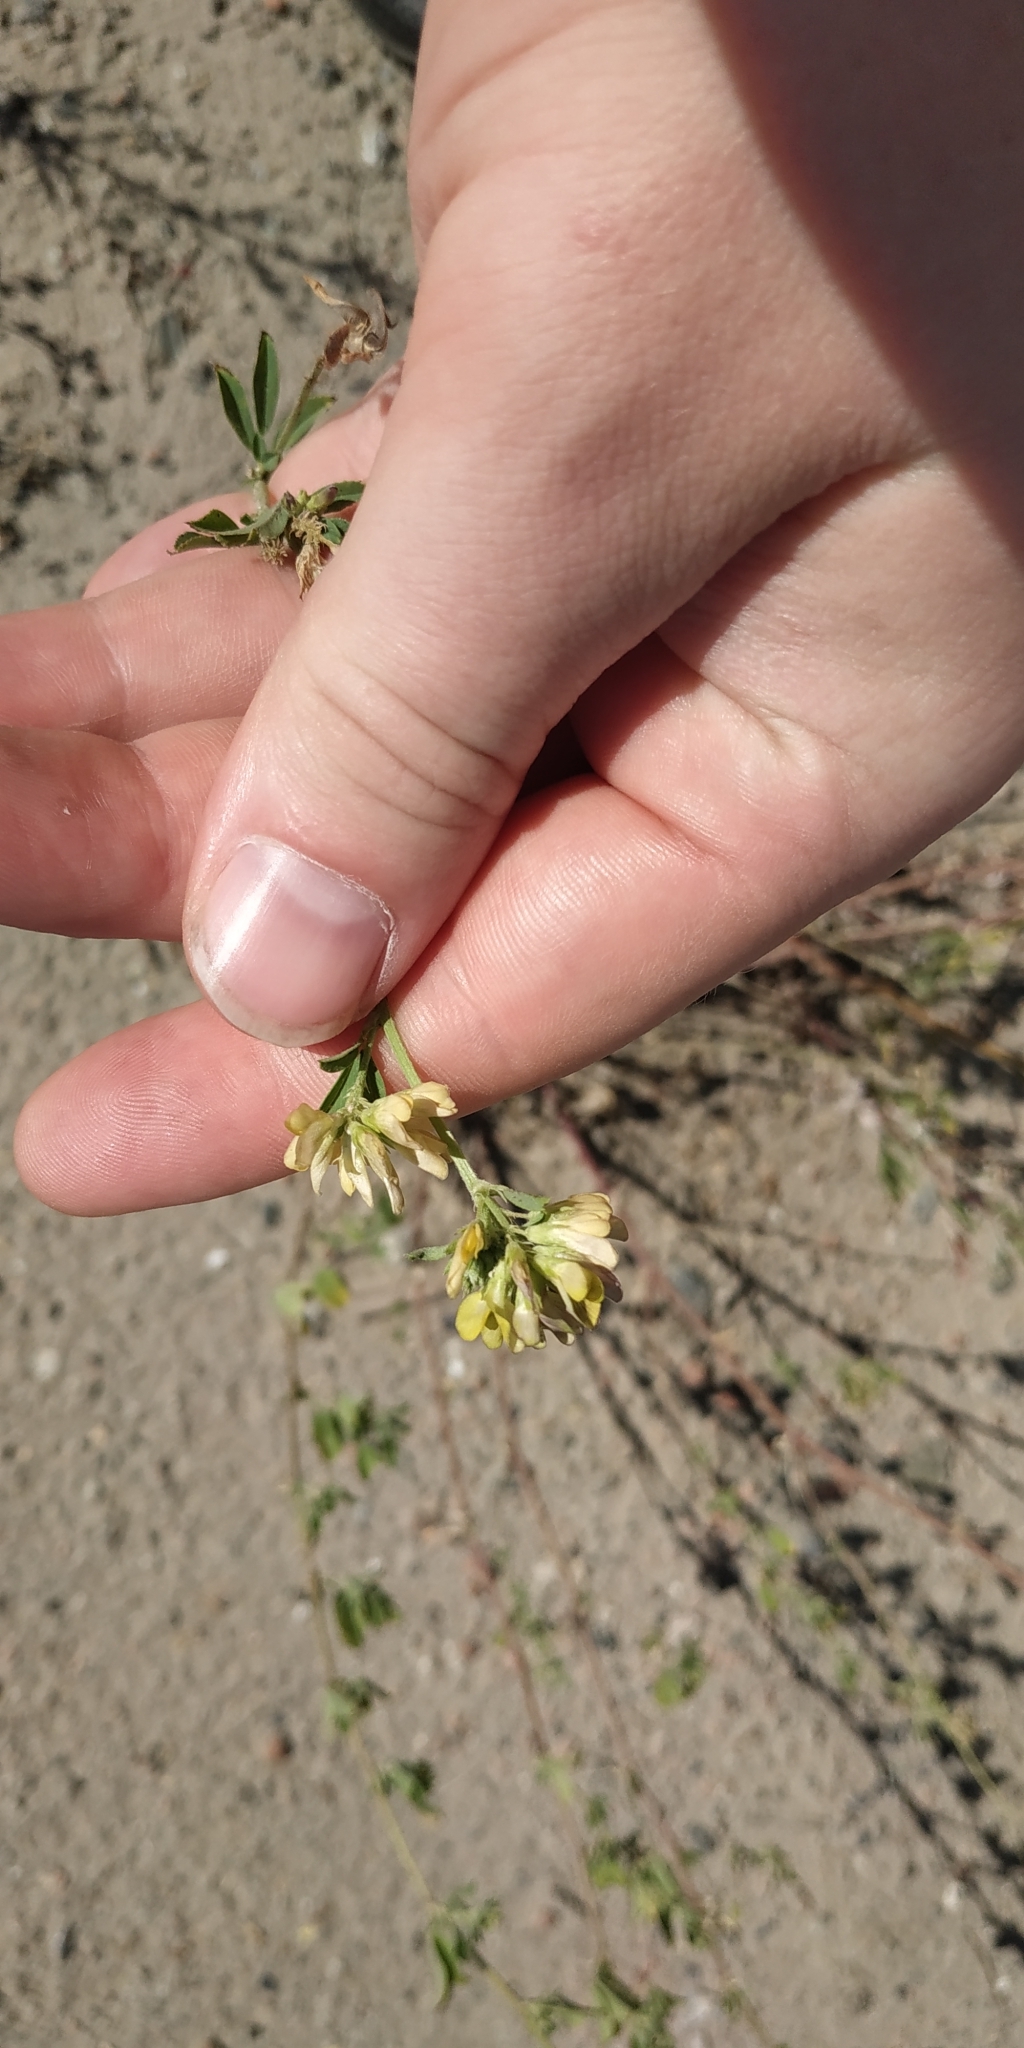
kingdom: Plantae
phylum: Tracheophyta
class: Magnoliopsida
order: Fabales
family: Fabaceae
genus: Medicago
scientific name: Medicago varia
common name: Sand lucerne
